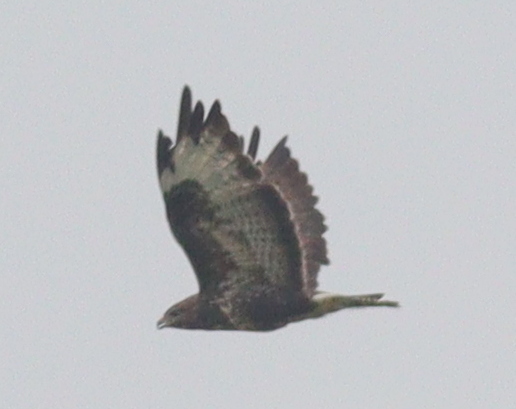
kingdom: Animalia
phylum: Chordata
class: Aves
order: Accipitriformes
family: Accipitridae
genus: Buteo
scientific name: Buteo buteo
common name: Common buzzard
